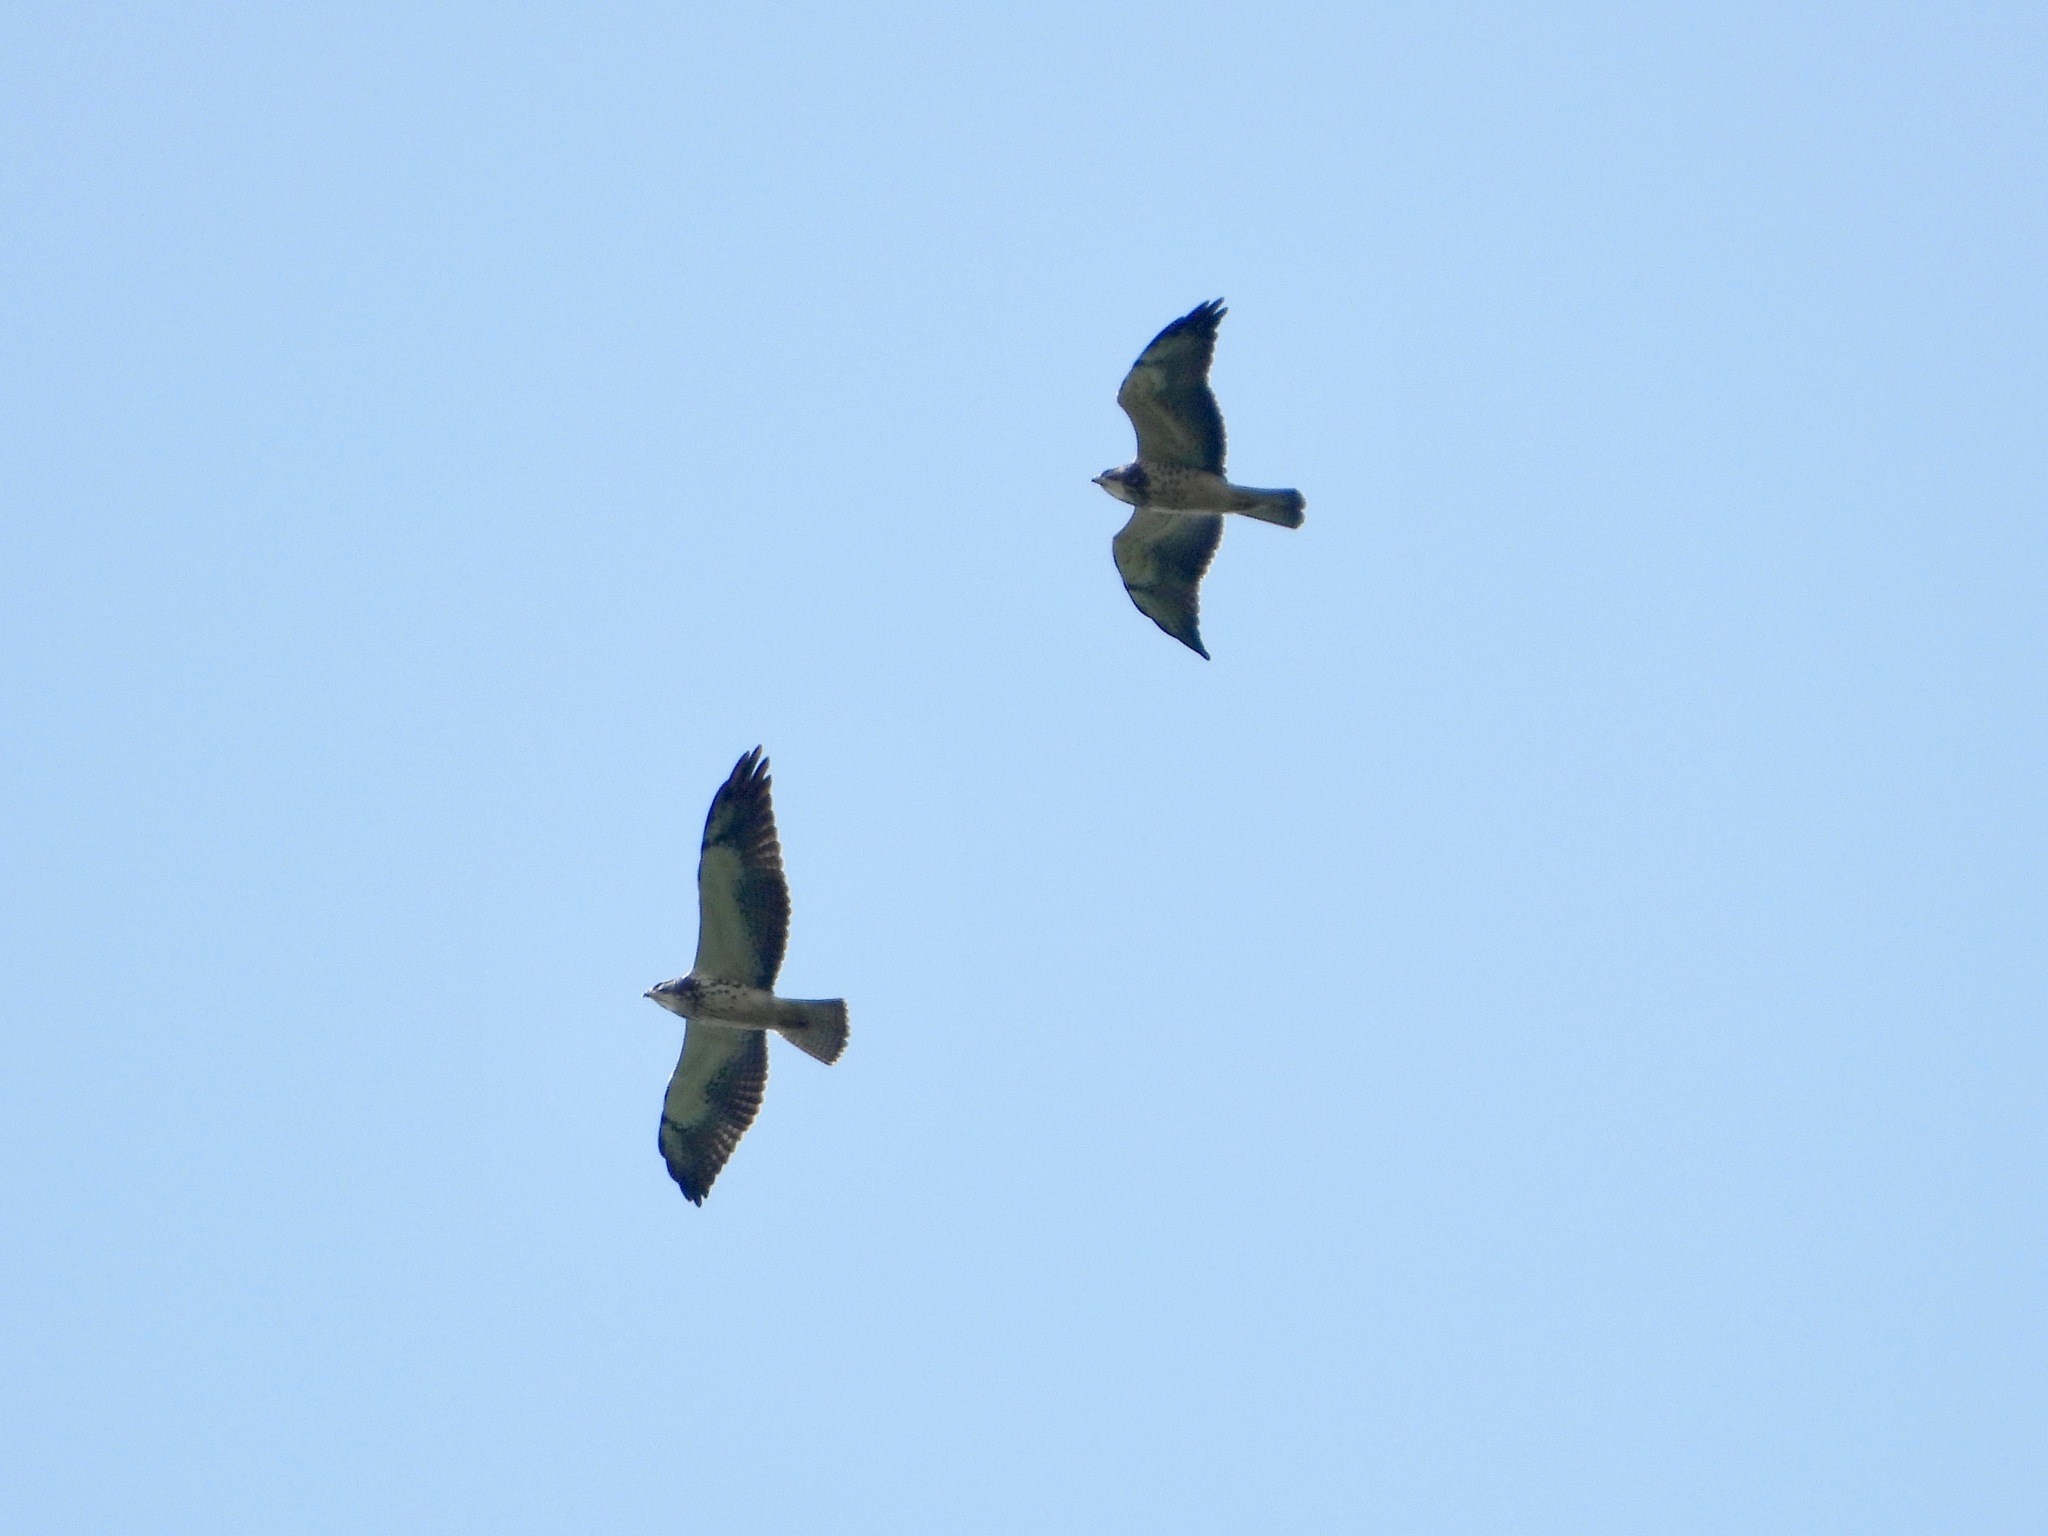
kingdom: Animalia
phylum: Chordata
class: Aves
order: Accipitriformes
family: Accipitridae
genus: Buteo
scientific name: Buteo swainsoni
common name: Swainson's hawk
